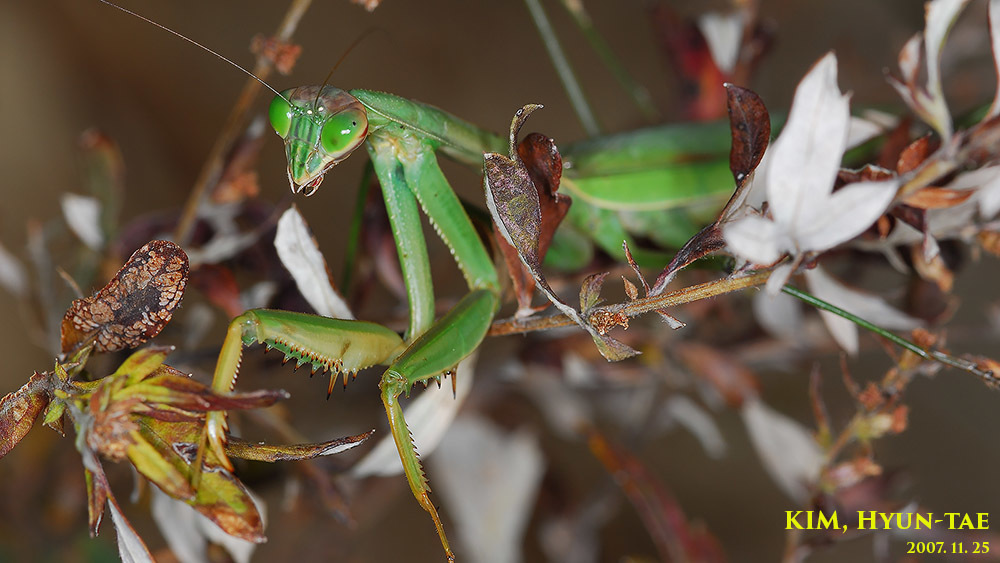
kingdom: Animalia
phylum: Arthropoda
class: Insecta
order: Mantodea
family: Mantidae
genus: Tenodera
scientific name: Tenodera aridifolia
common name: Mantis
